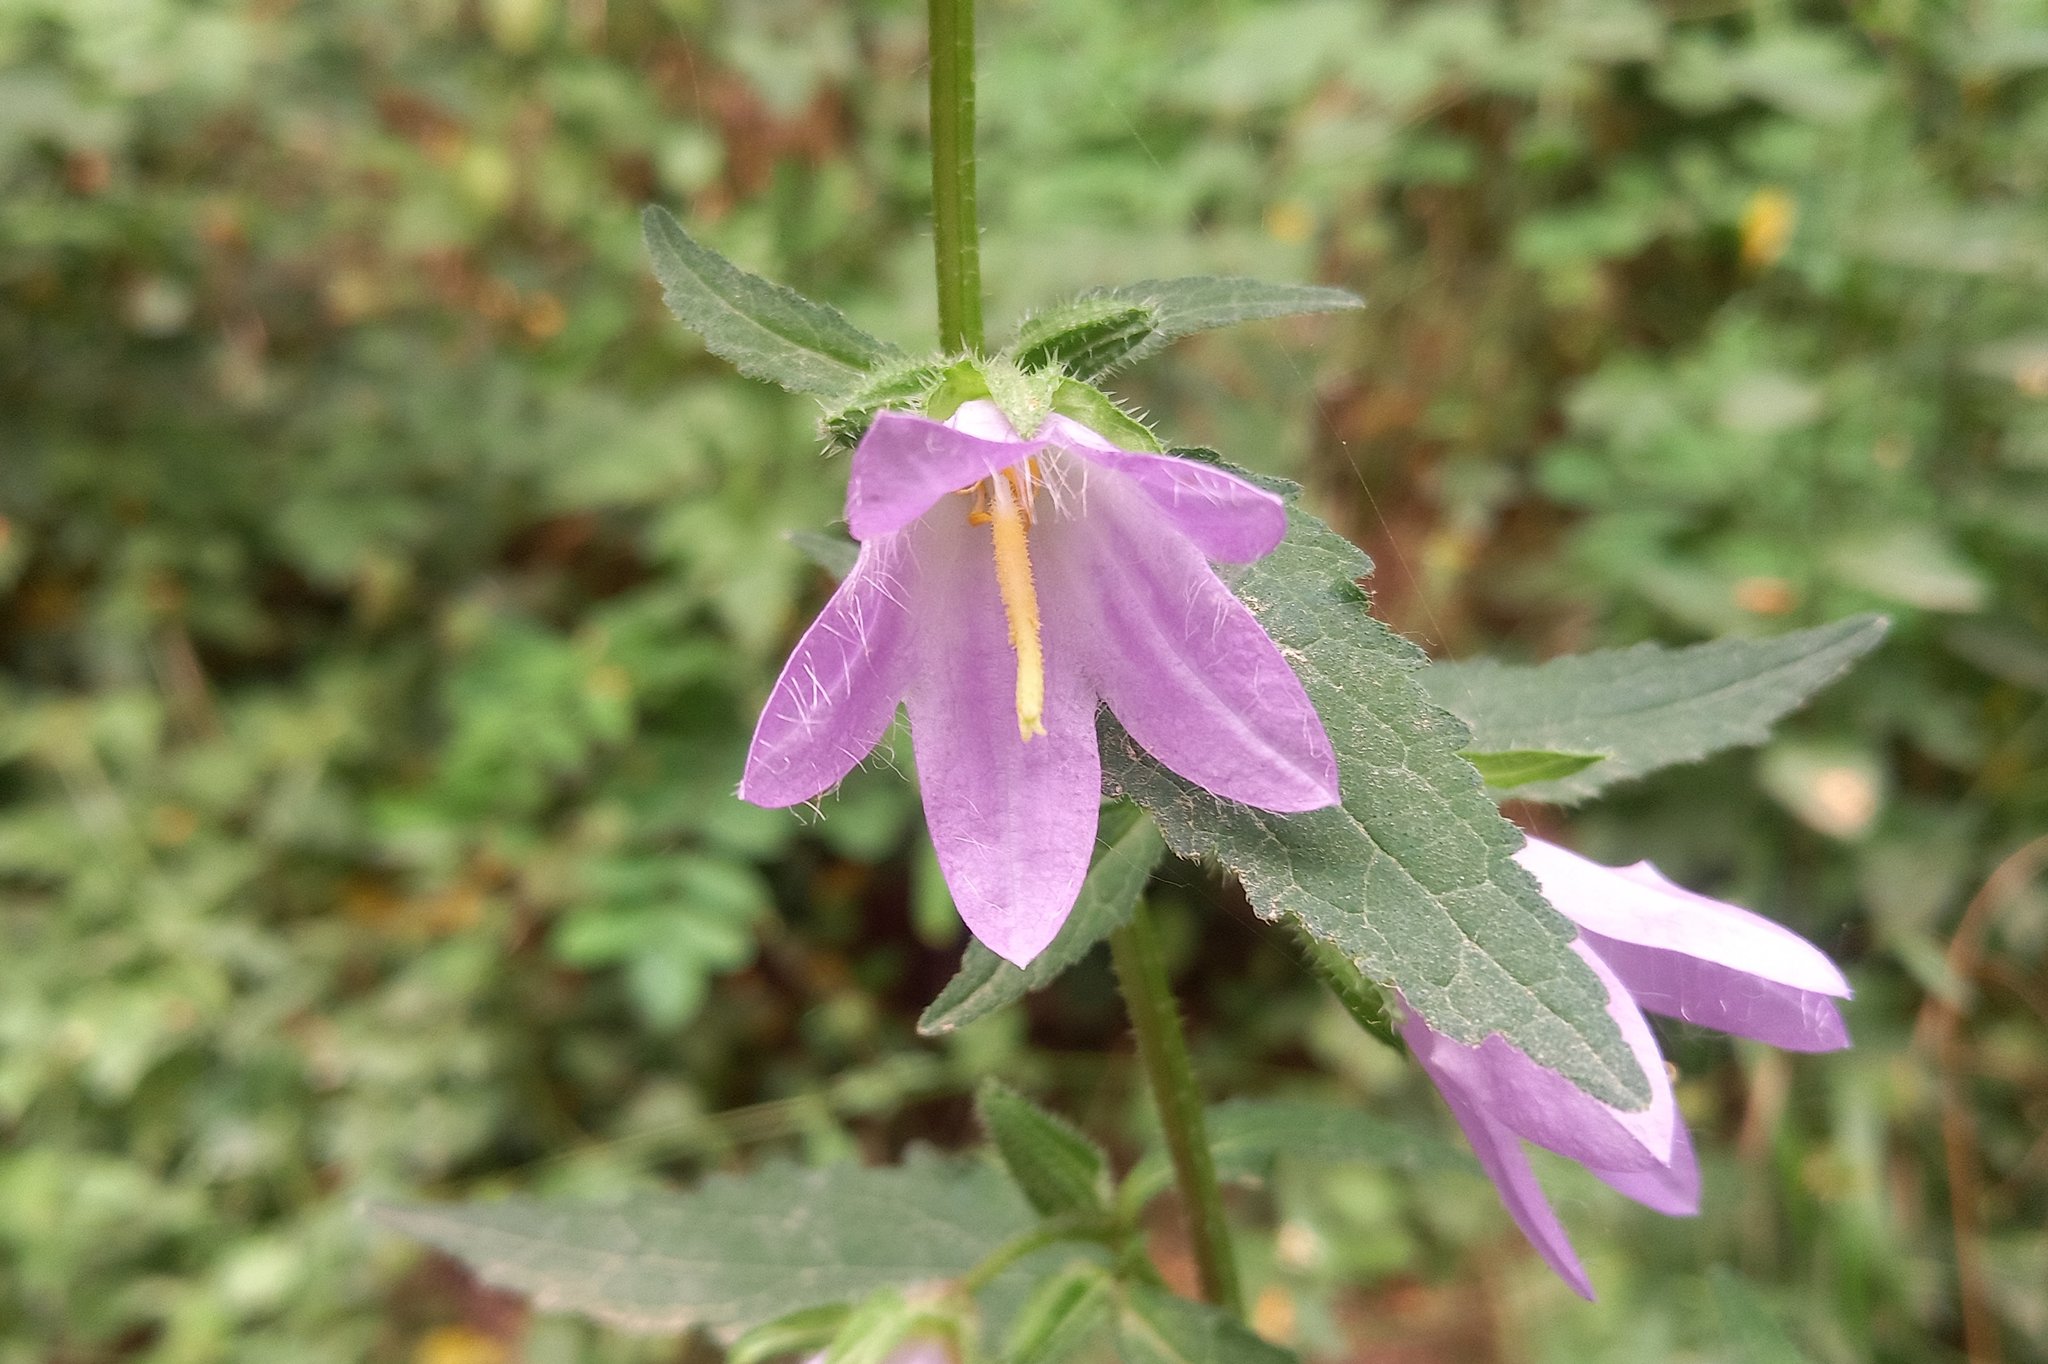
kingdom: Plantae
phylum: Tracheophyta
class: Magnoliopsida
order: Asterales
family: Campanulaceae
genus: Campanula
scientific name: Campanula trachelium
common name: Nettle-leaved bellflower
